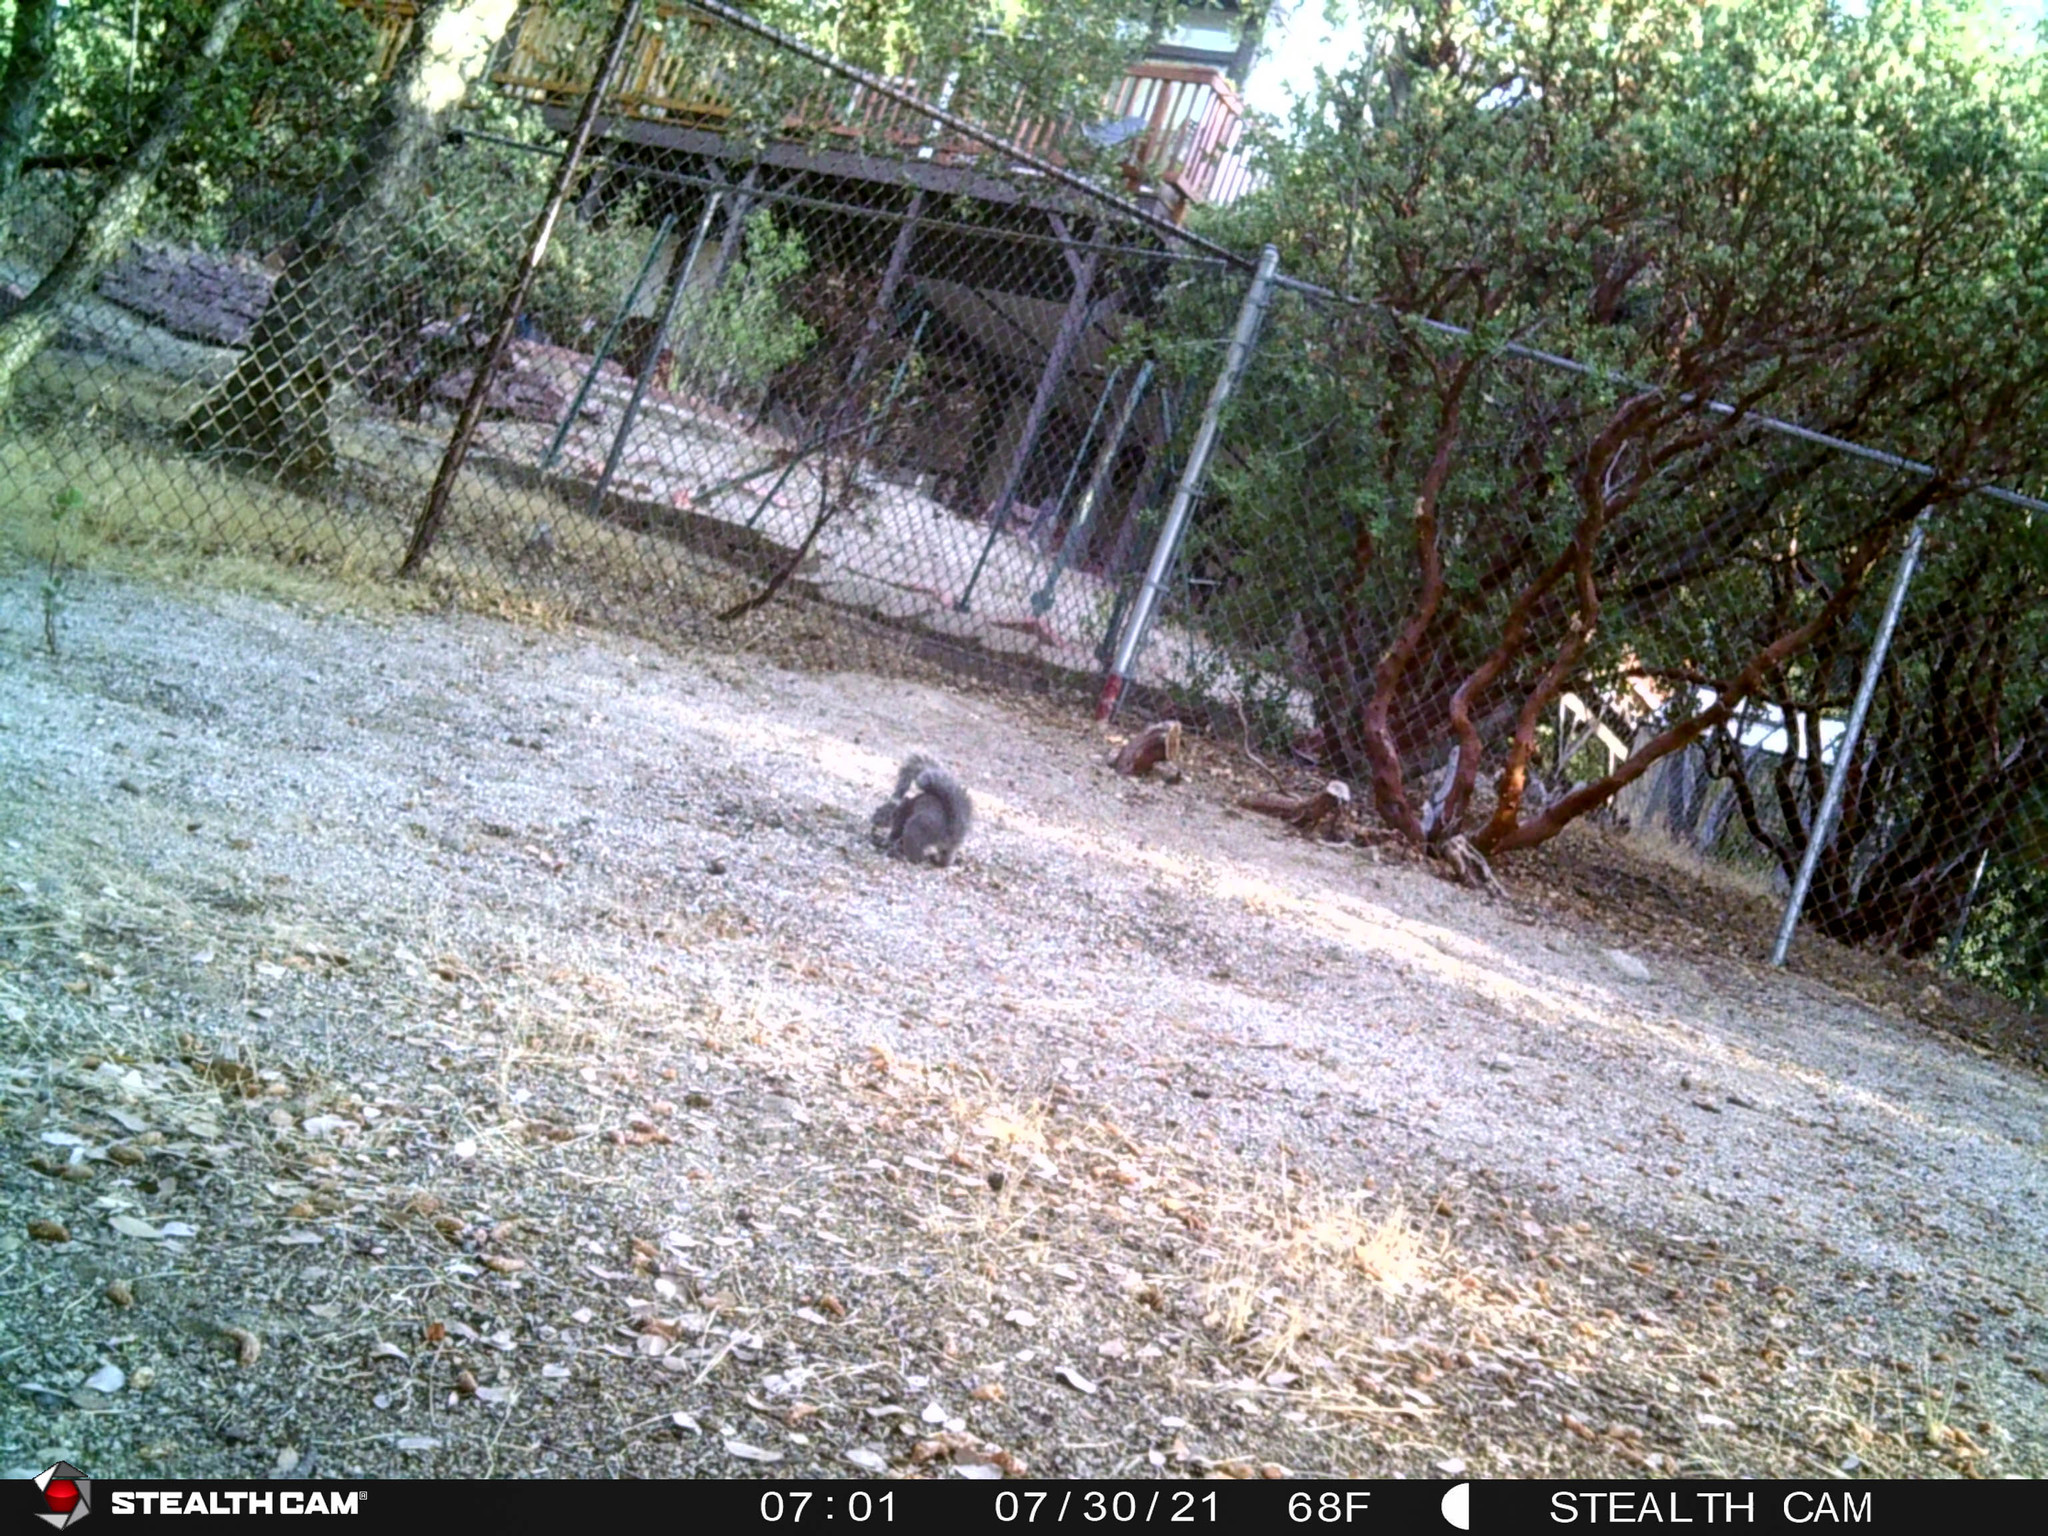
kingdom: Animalia
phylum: Chordata
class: Mammalia
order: Rodentia
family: Sciuridae
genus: Sciurus
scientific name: Sciurus griseus
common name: Western gray squirrel
